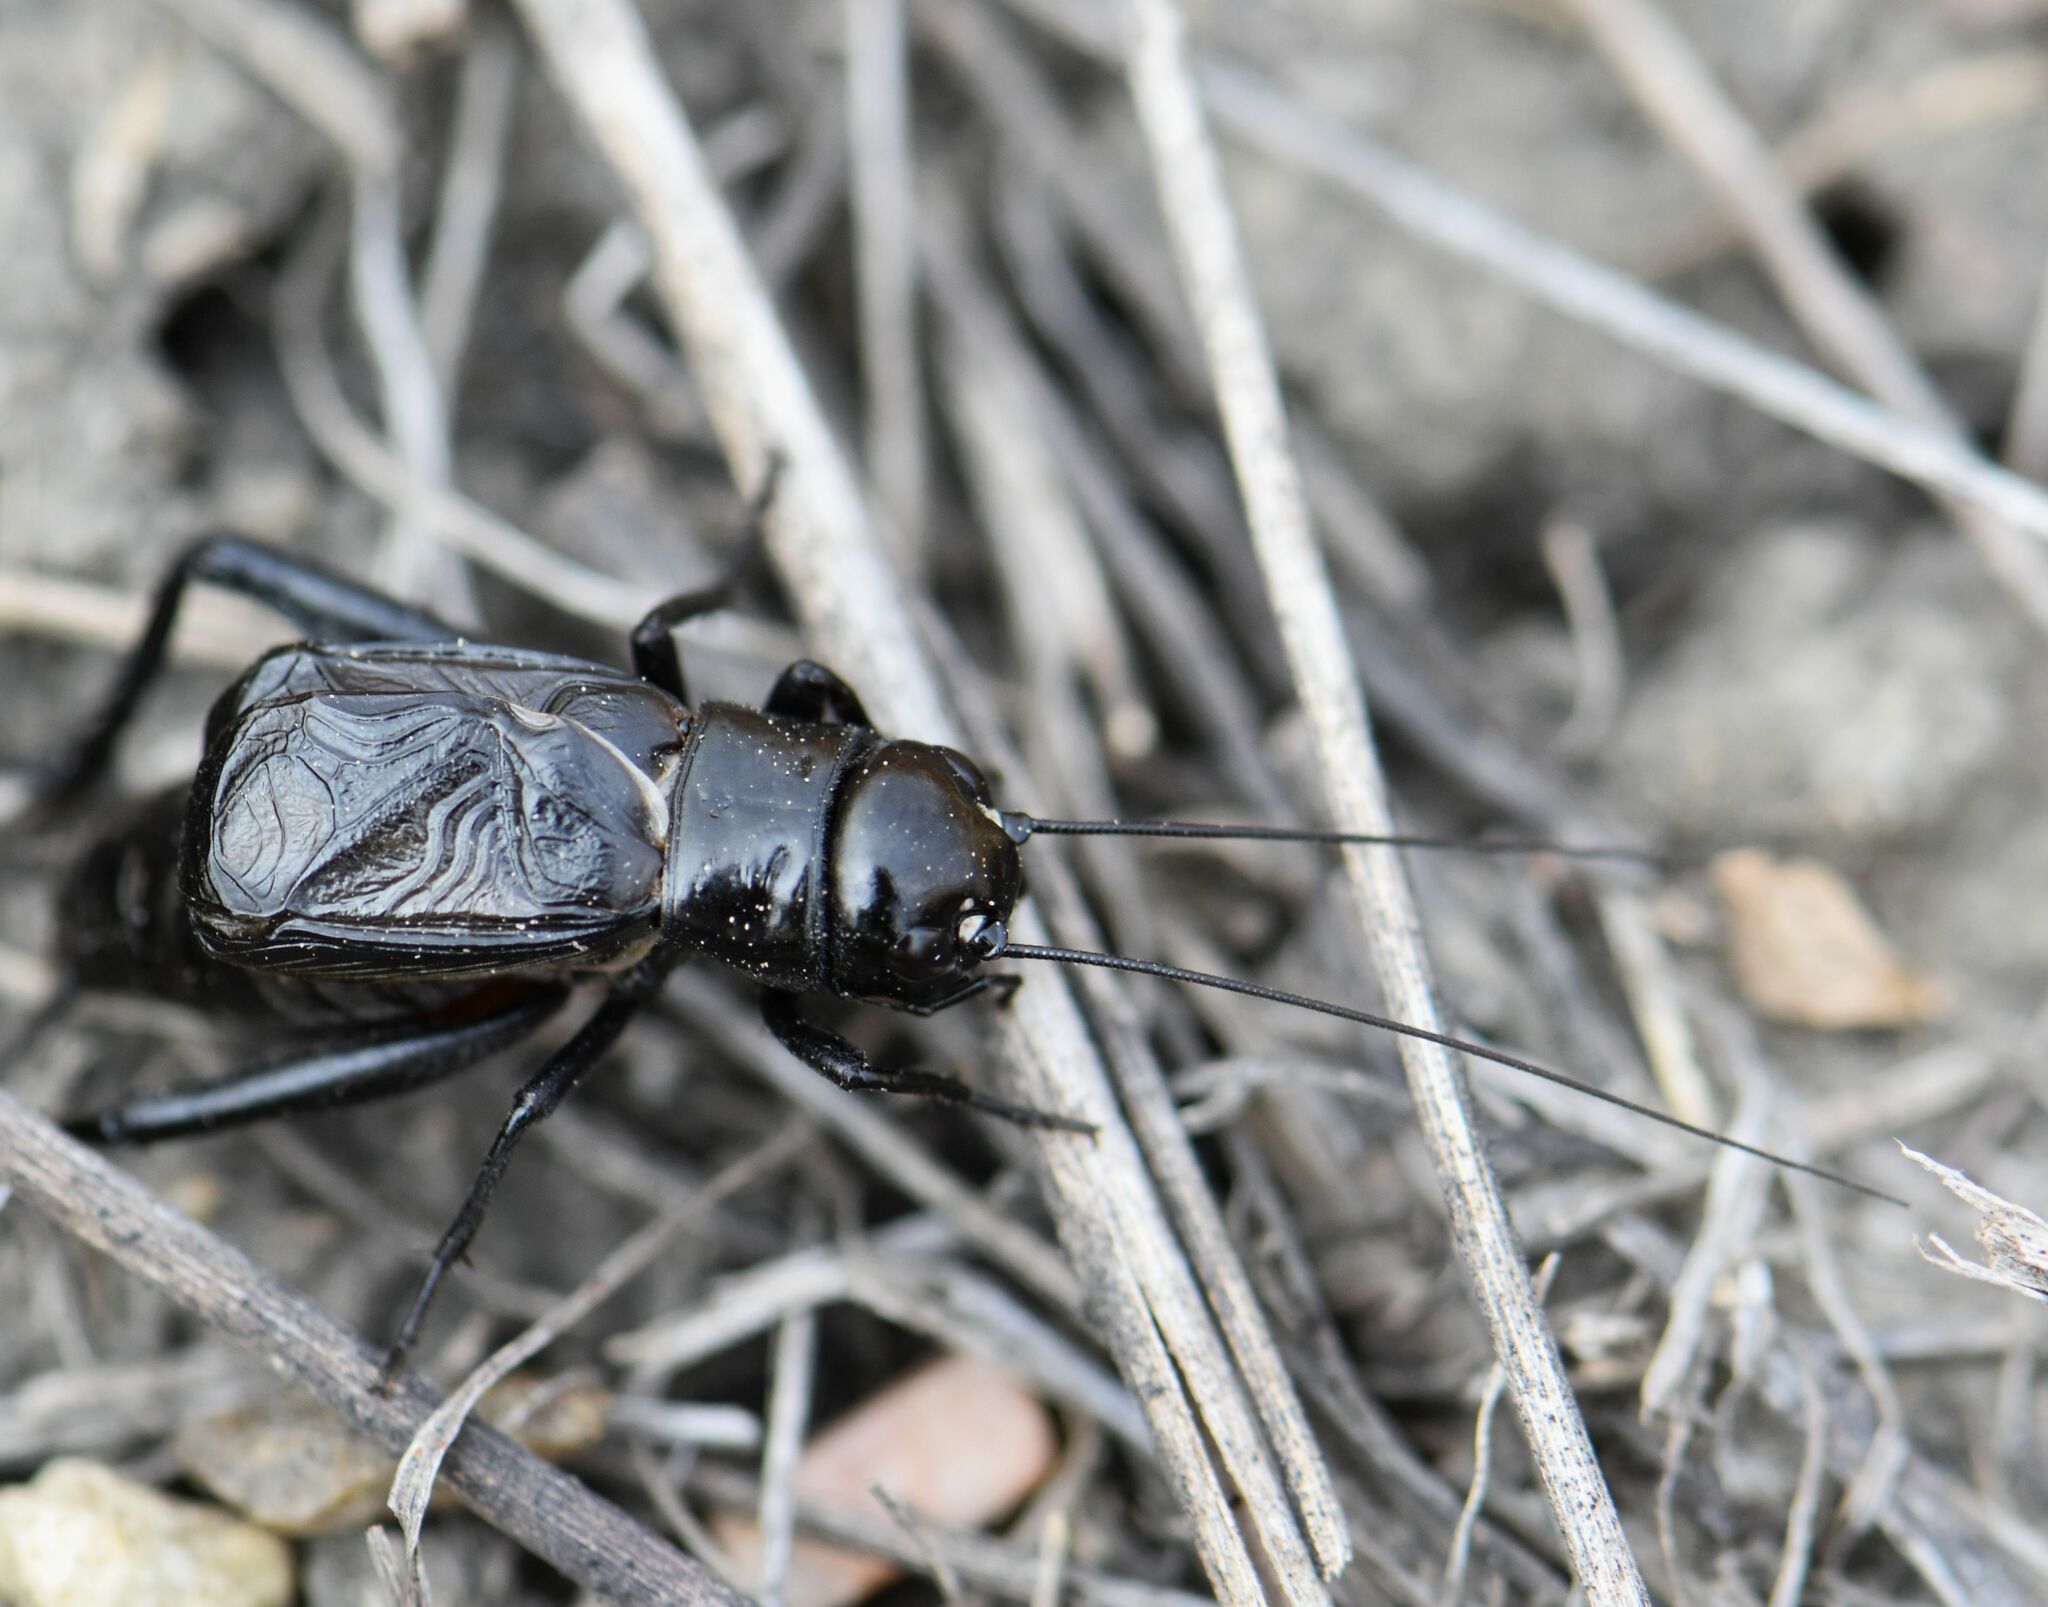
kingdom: Animalia
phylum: Arthropoda
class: Insecta
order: Orthoptera
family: Gryllidae
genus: Gryllus
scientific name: Gryllus pennsylvanicus
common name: Fall field cricket
